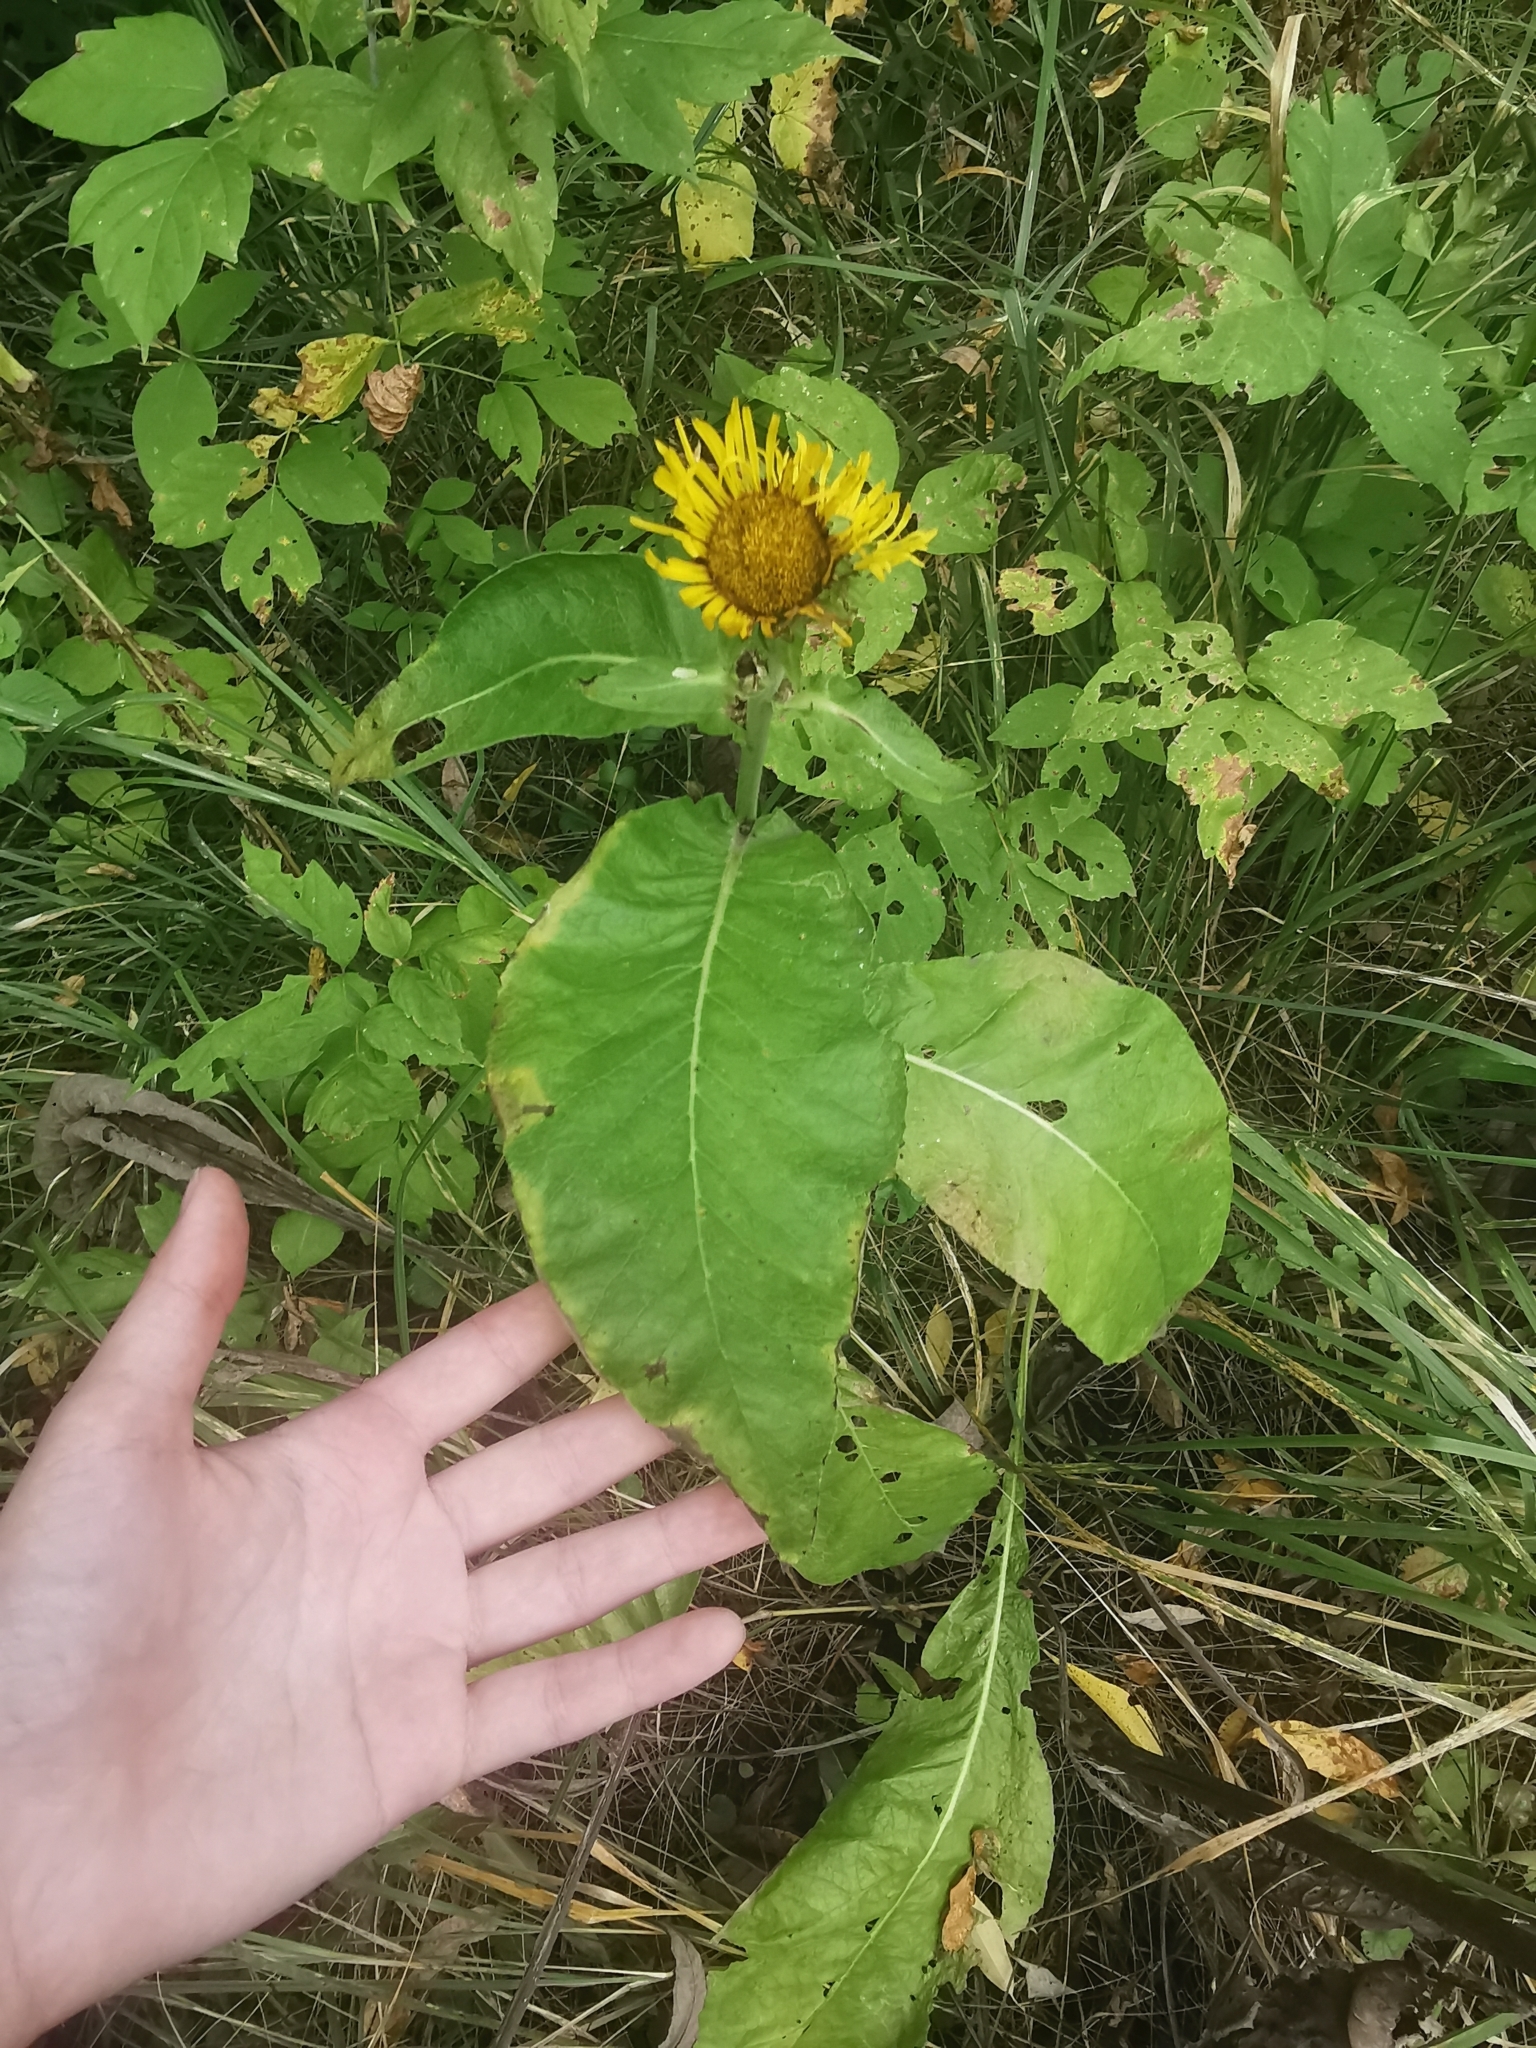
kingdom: Plantae
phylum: Tracheophyta
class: Magnoliopsida
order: Asterales
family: Asteraceae
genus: Inula
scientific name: Inula helenium
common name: Elecampane
